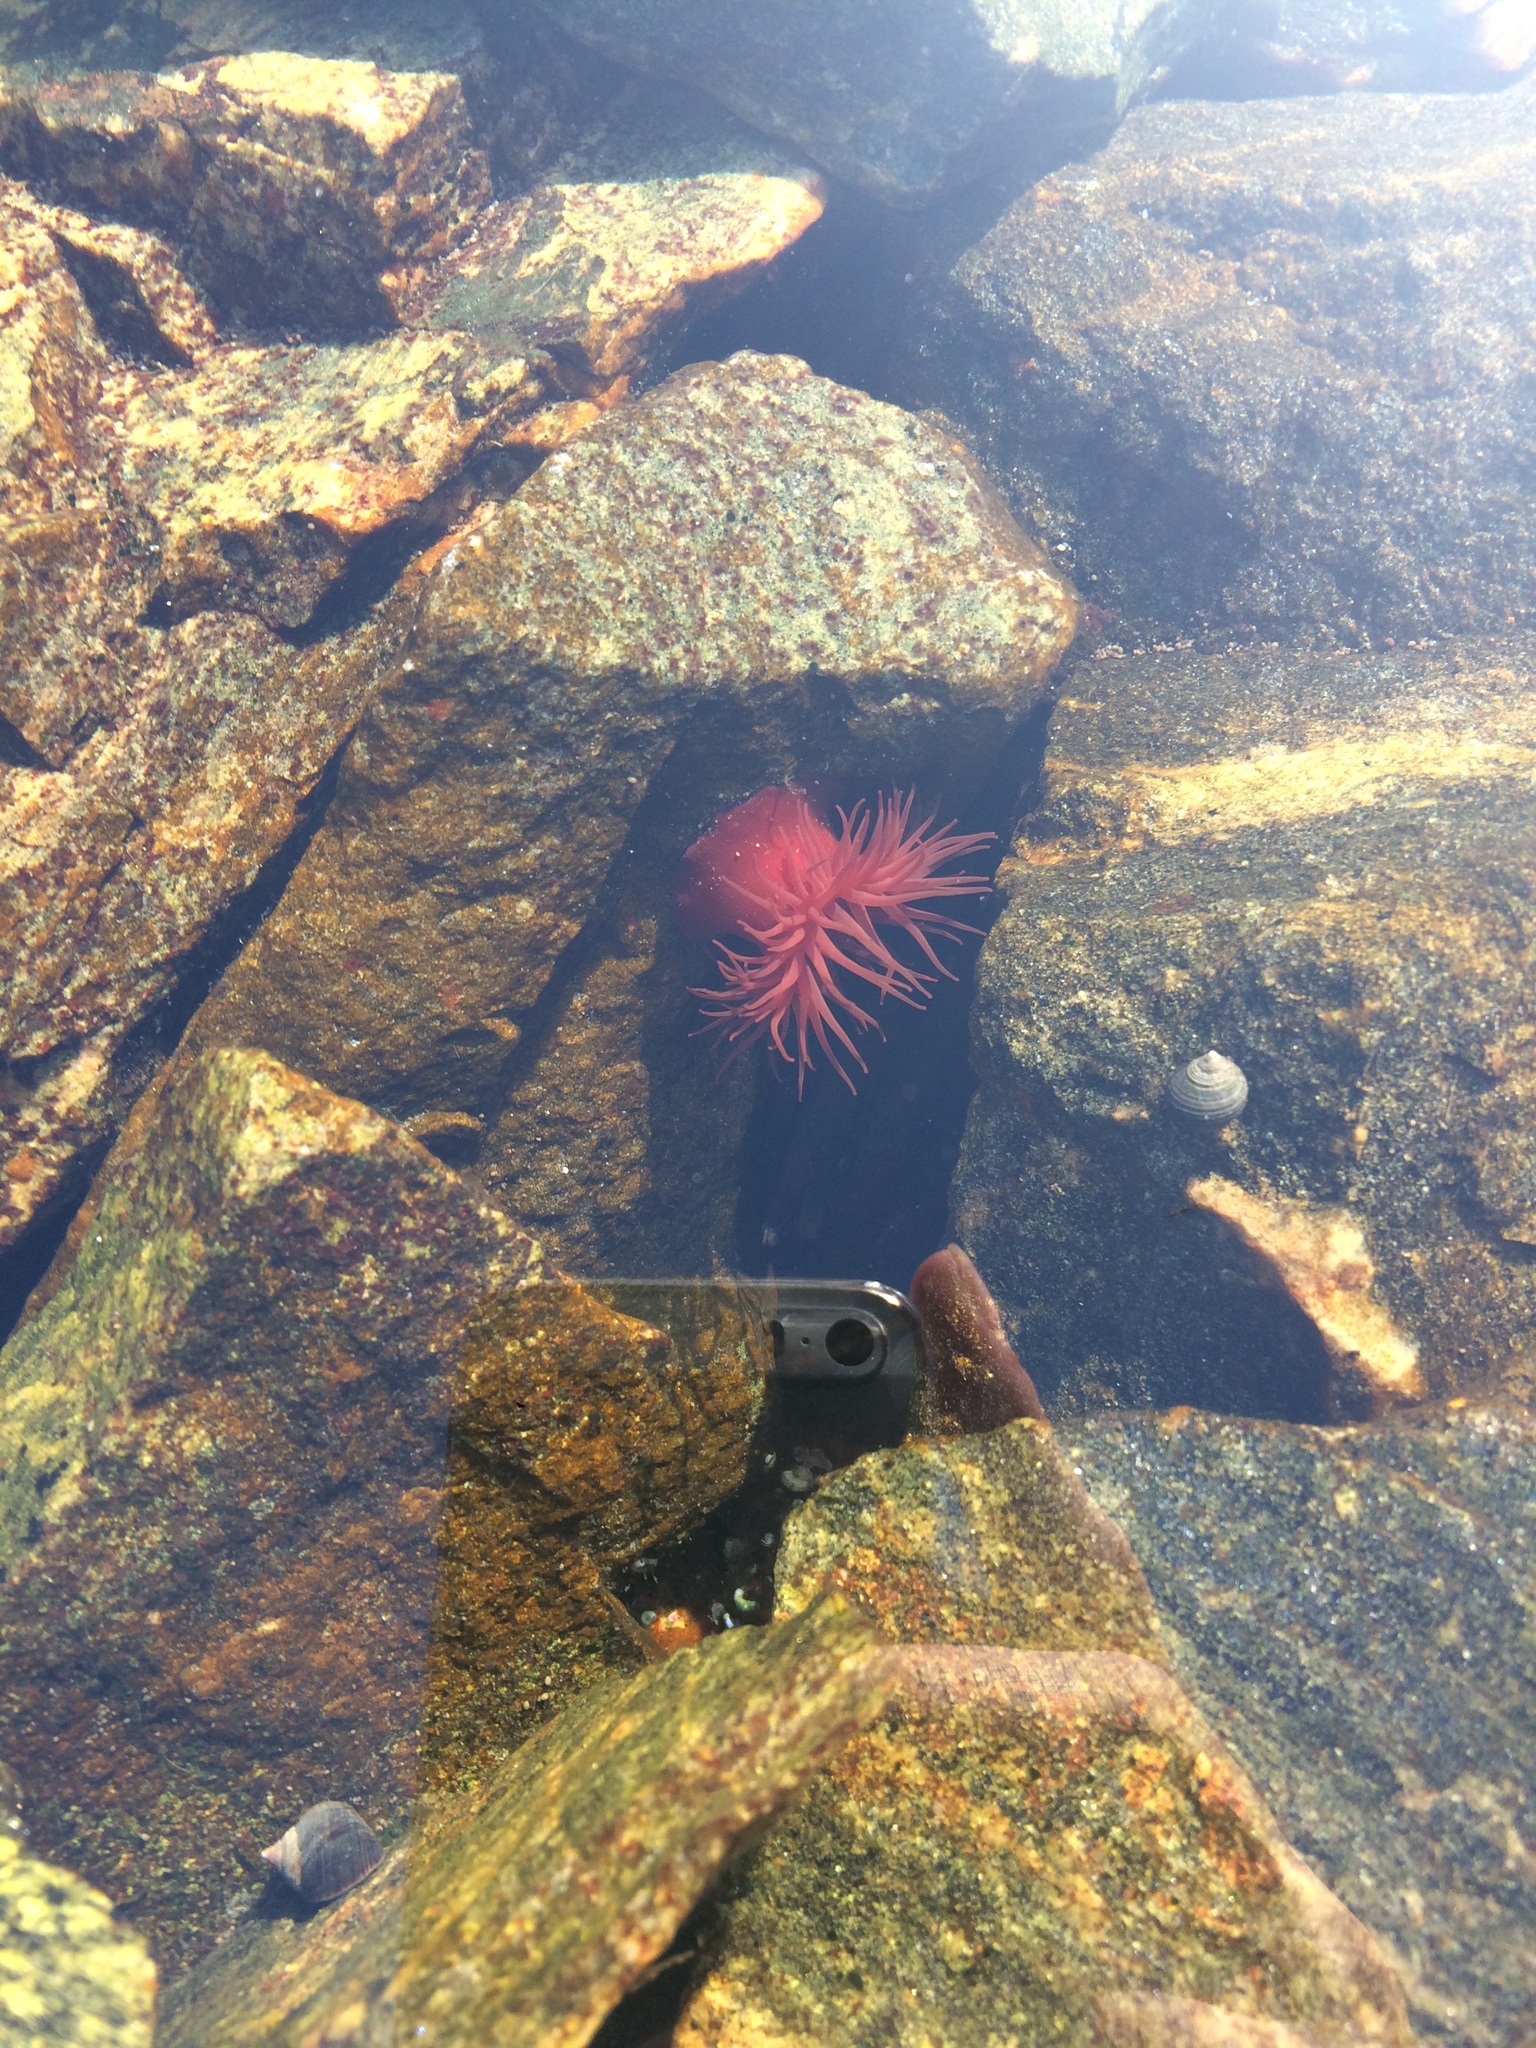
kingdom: Animalia
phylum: Cnidaria
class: Anthozoa
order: Actiniaria
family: Actiniidae
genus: Actinia
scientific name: Actinia equina
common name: Beadlet anemone
